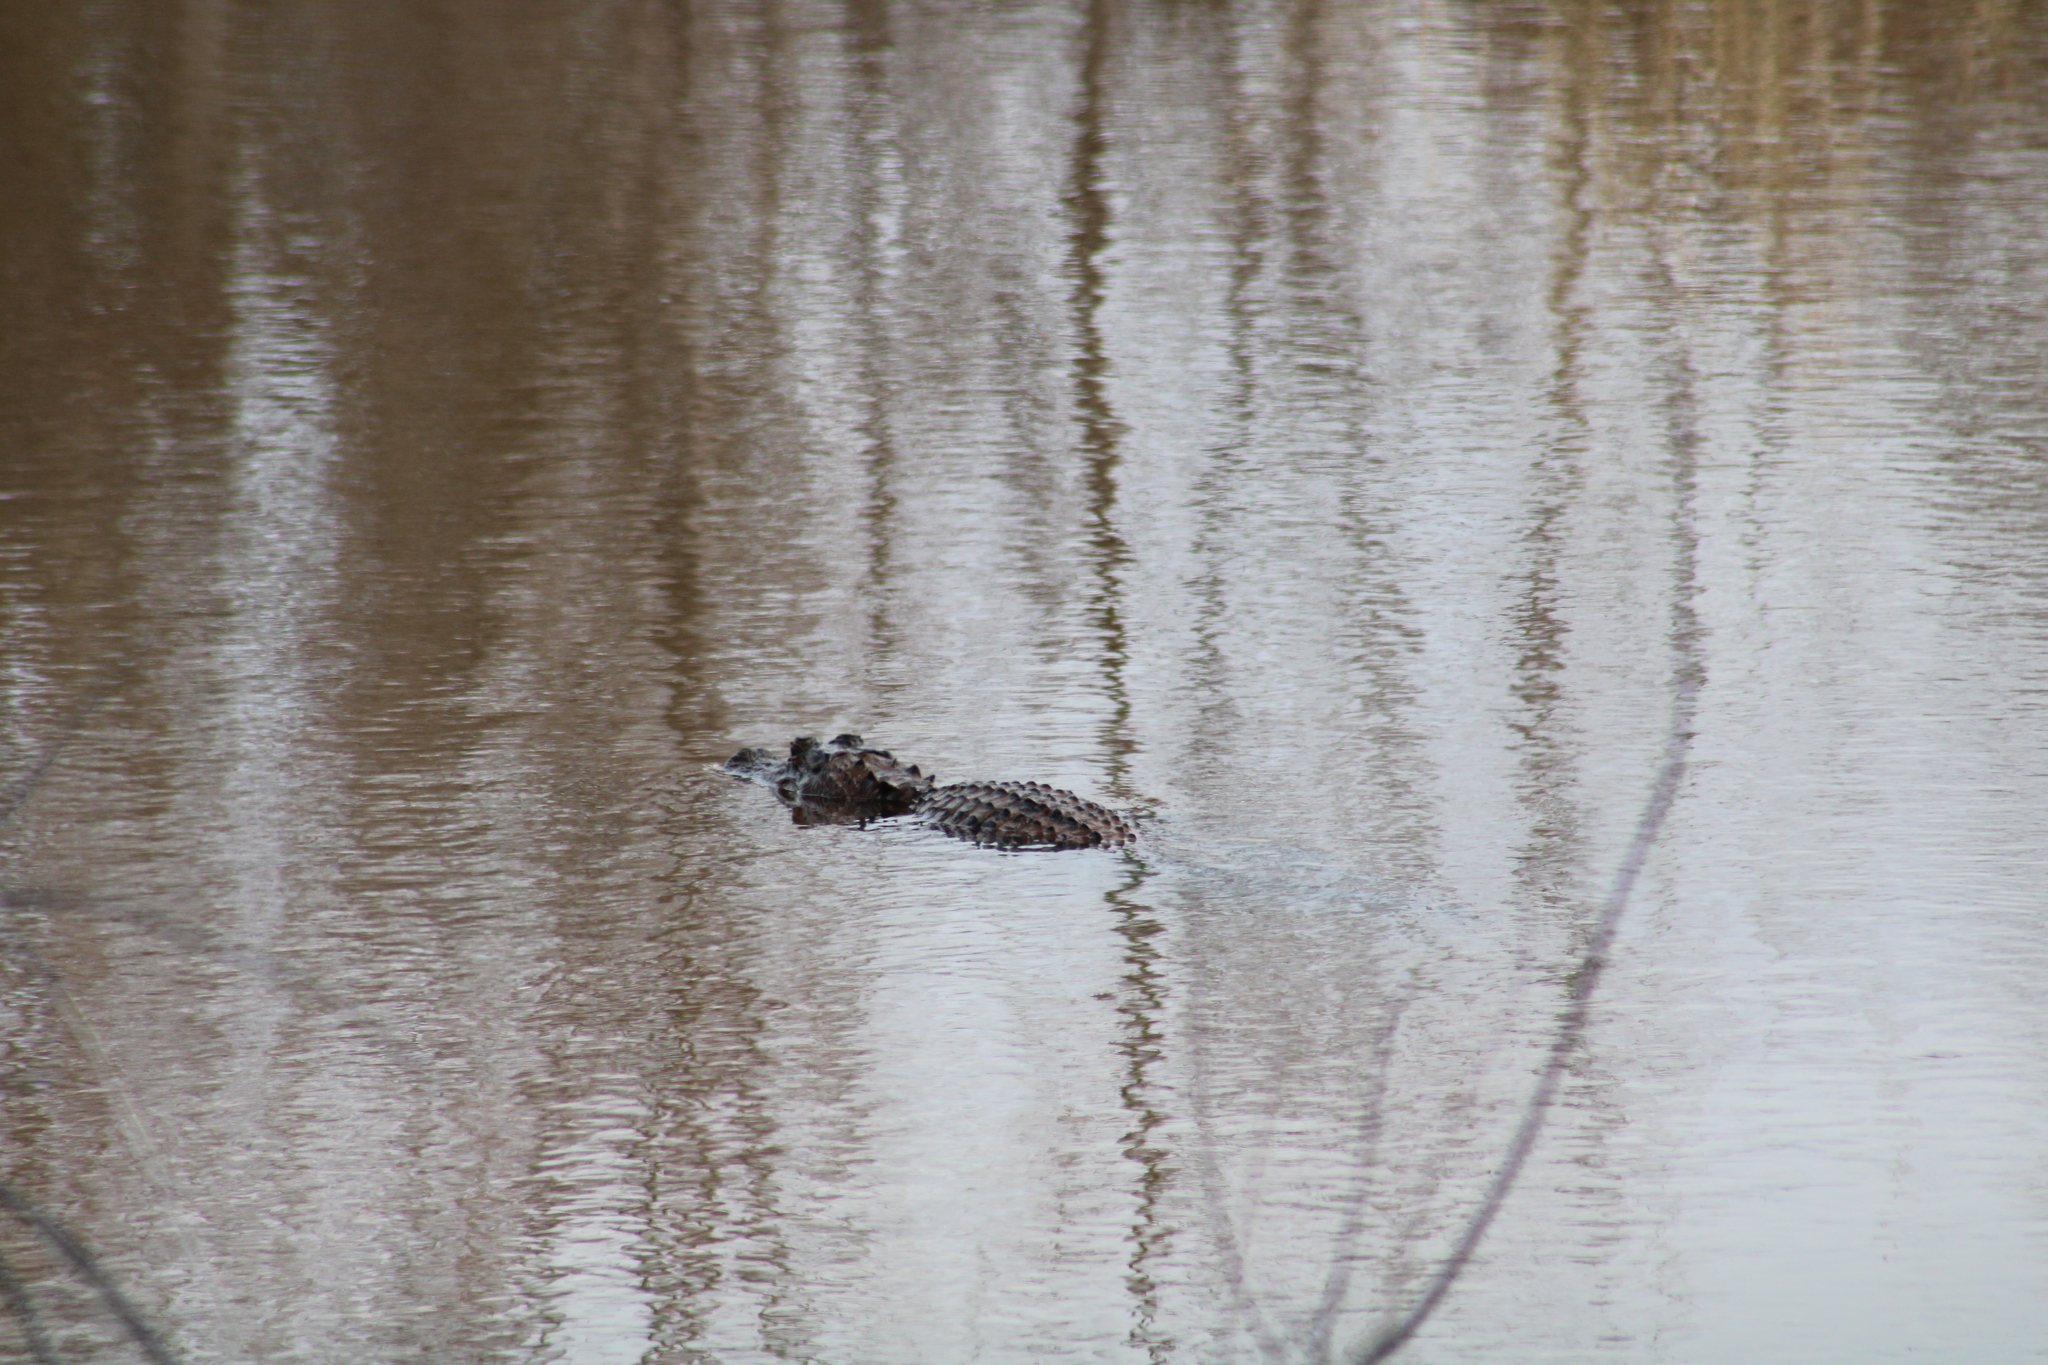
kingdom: Animalia
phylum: Chordata
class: Crocodylia
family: Alligatoridae
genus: Alligator
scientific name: Alligator mississippiensis
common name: American alligator
